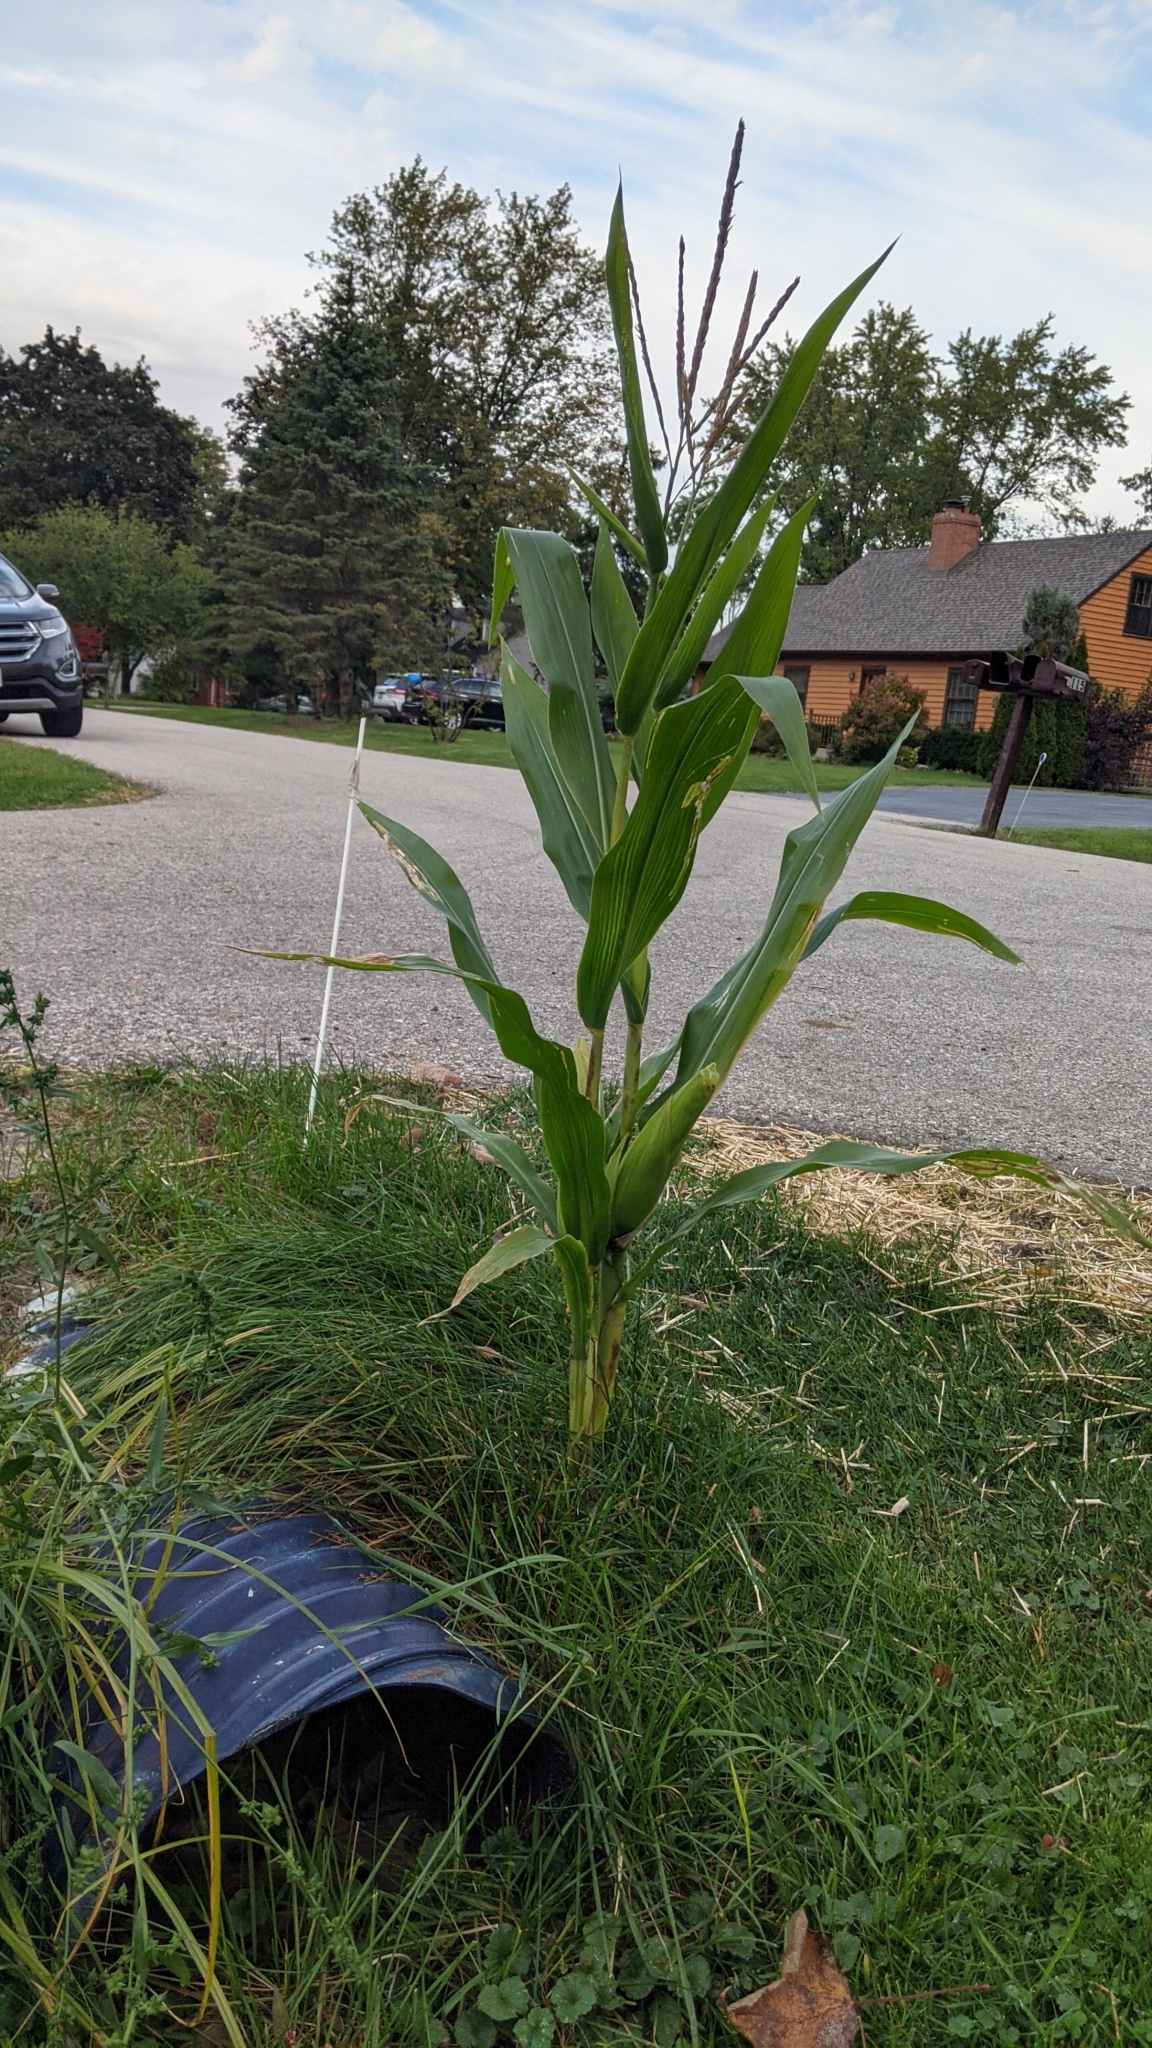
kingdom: Plantae
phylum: Tracheophyta
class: Liliopsida
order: Poales
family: Poaceae
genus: Zea
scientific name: Zea mays
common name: Maize
